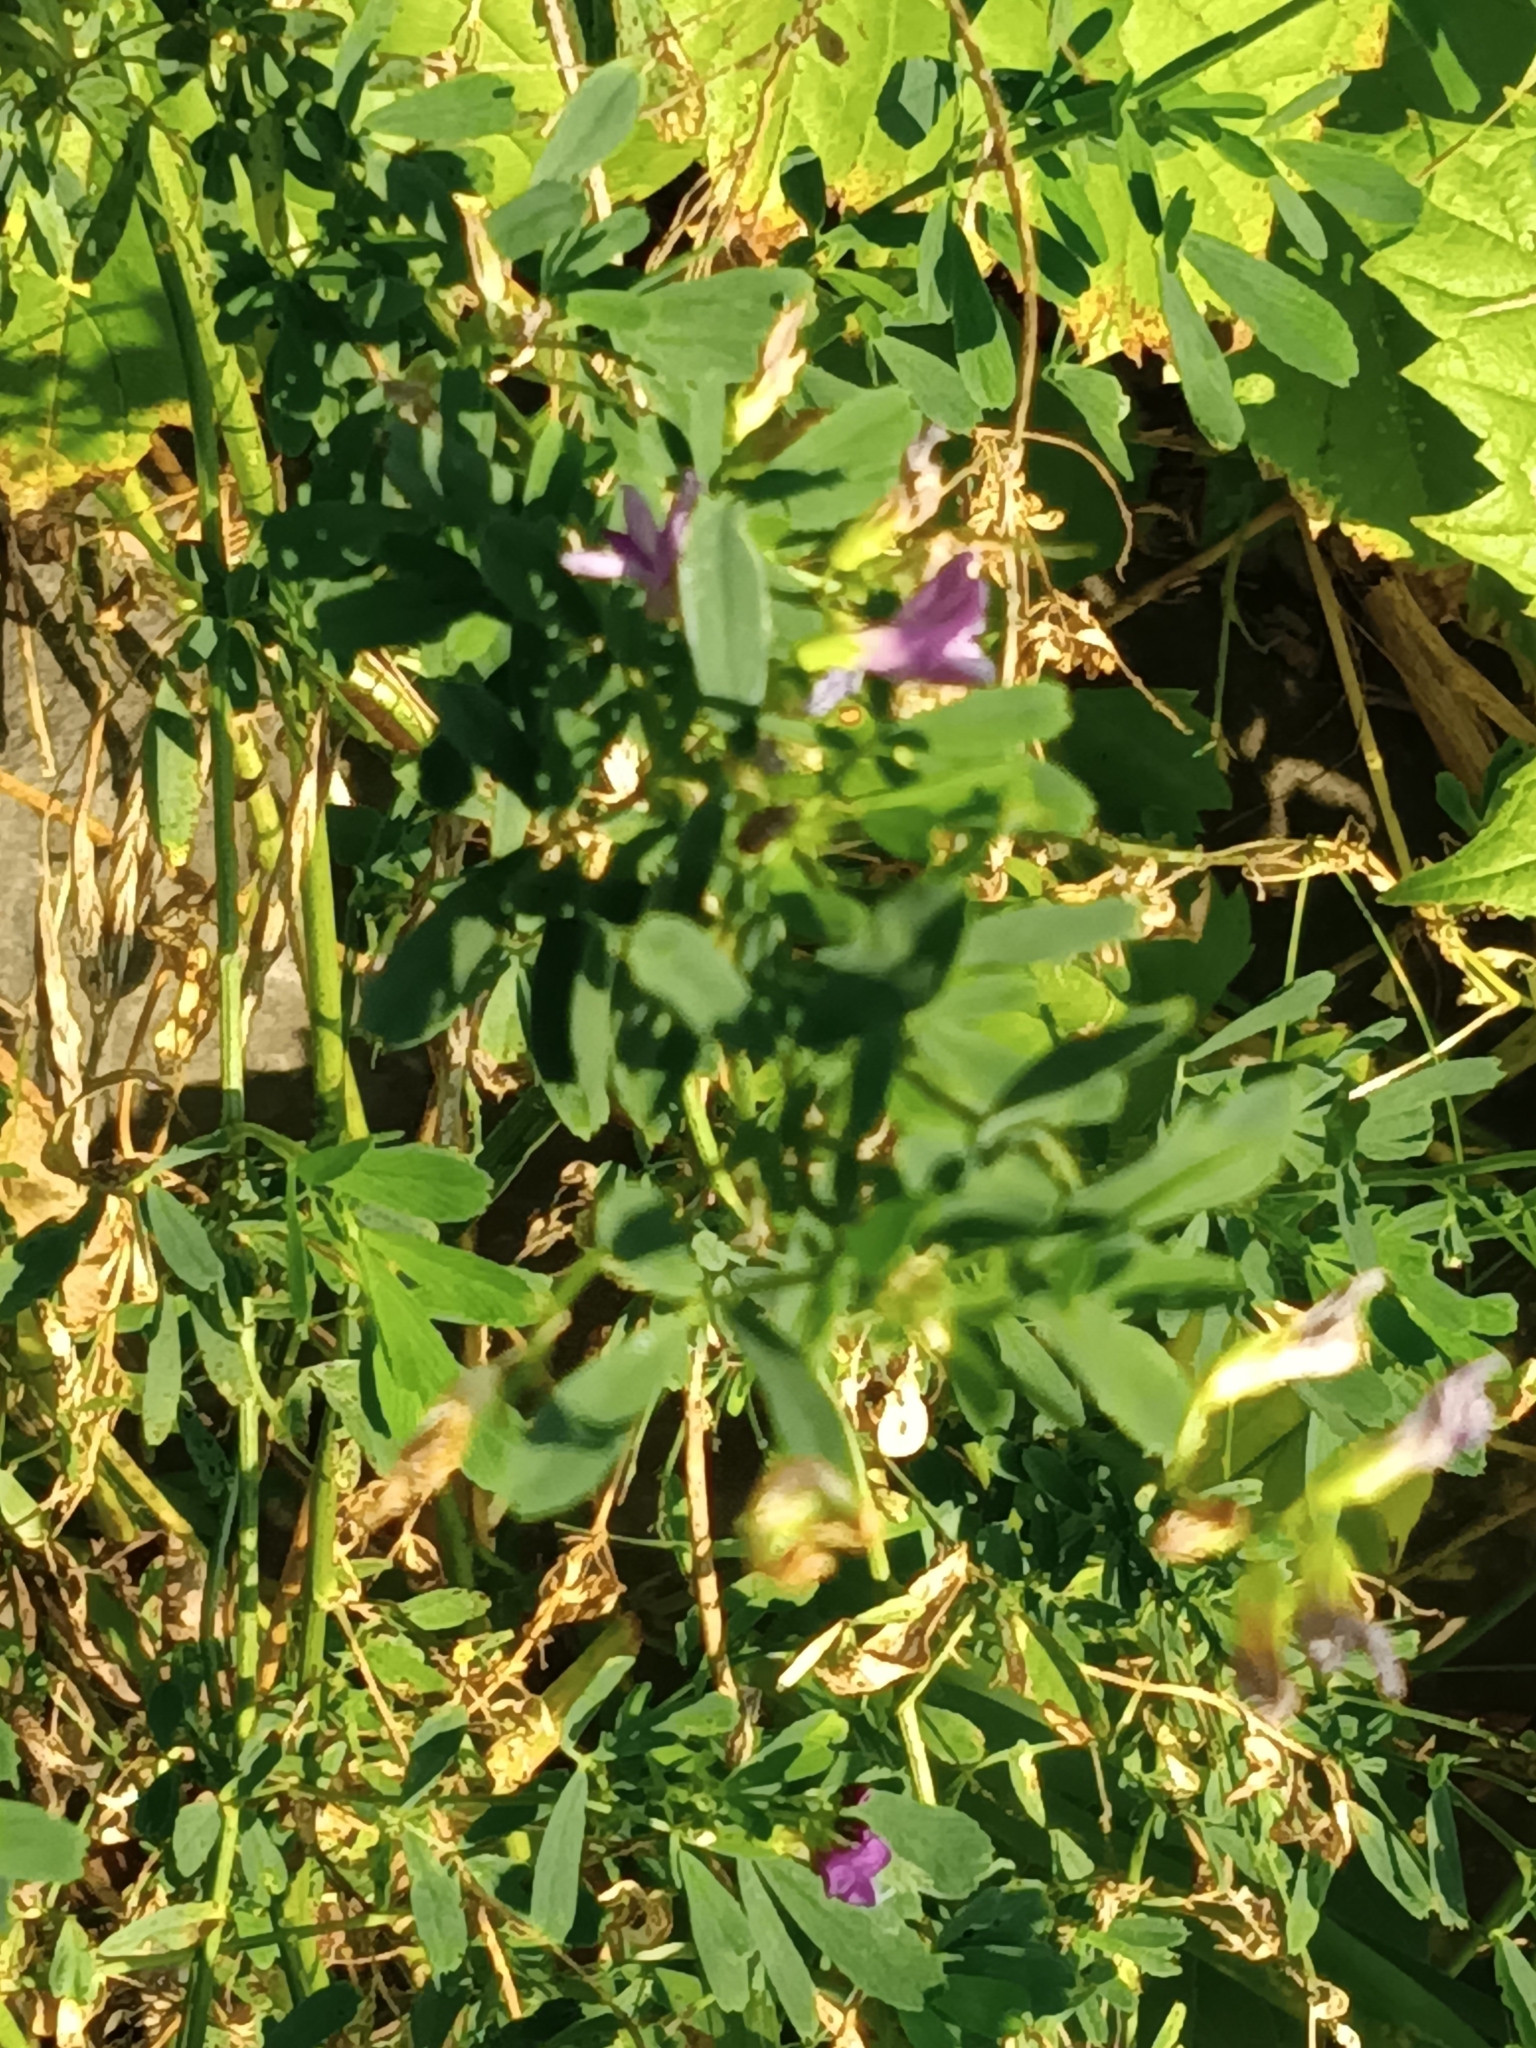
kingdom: Plantae
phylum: Tracheophyta
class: Magnoliopsida
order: Fabales
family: Fabaceae
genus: Medicago
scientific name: Medicago sativa
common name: Alfalfa
